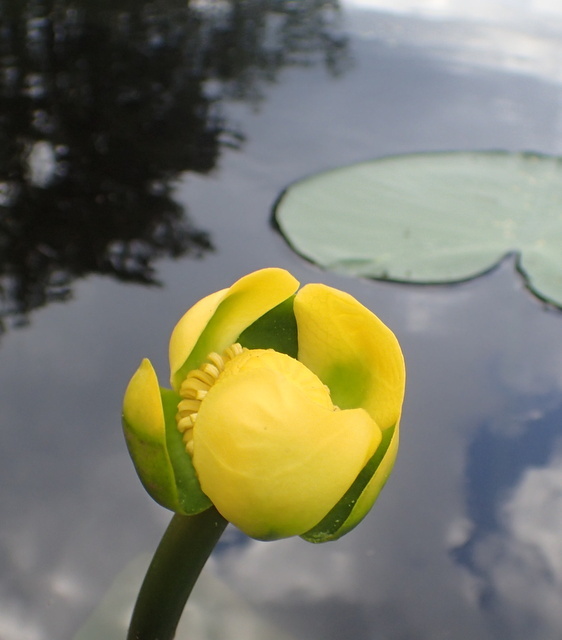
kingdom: Plantae
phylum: Tracheophyta
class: Magnoliopsida
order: Nymphaeales
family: Nymphaeaceae
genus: Nuphar
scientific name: Nuphar advena
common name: Spatter-dock
